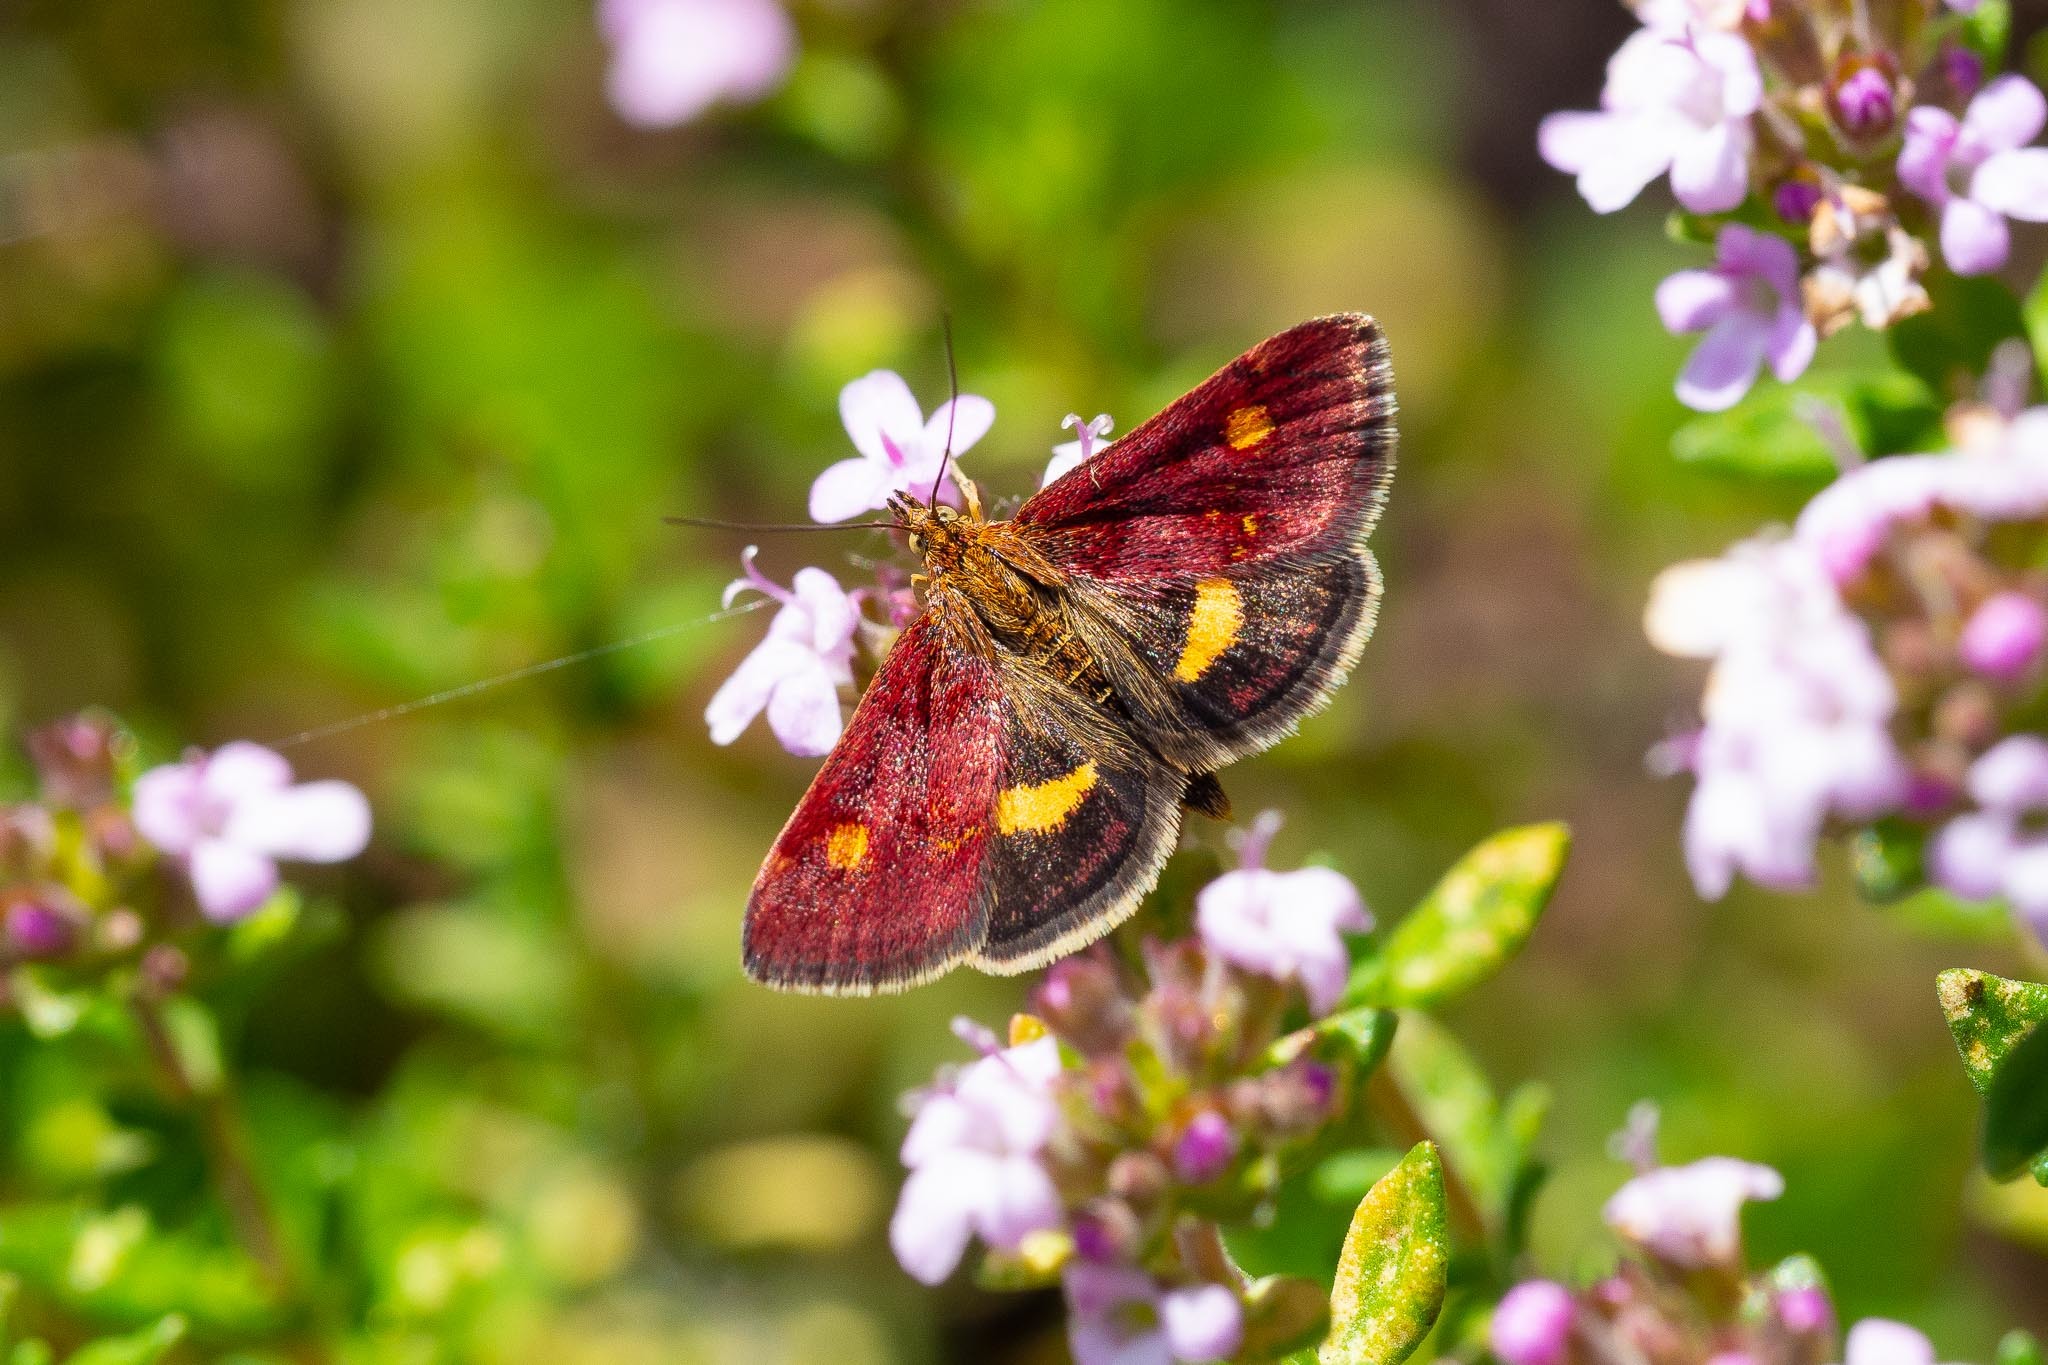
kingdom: Animalia
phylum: Arthropoda
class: Insecta
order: Lepidoptera
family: Crambidae
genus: Pyrausta
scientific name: Pyrausta aurata
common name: Small purple & gold
